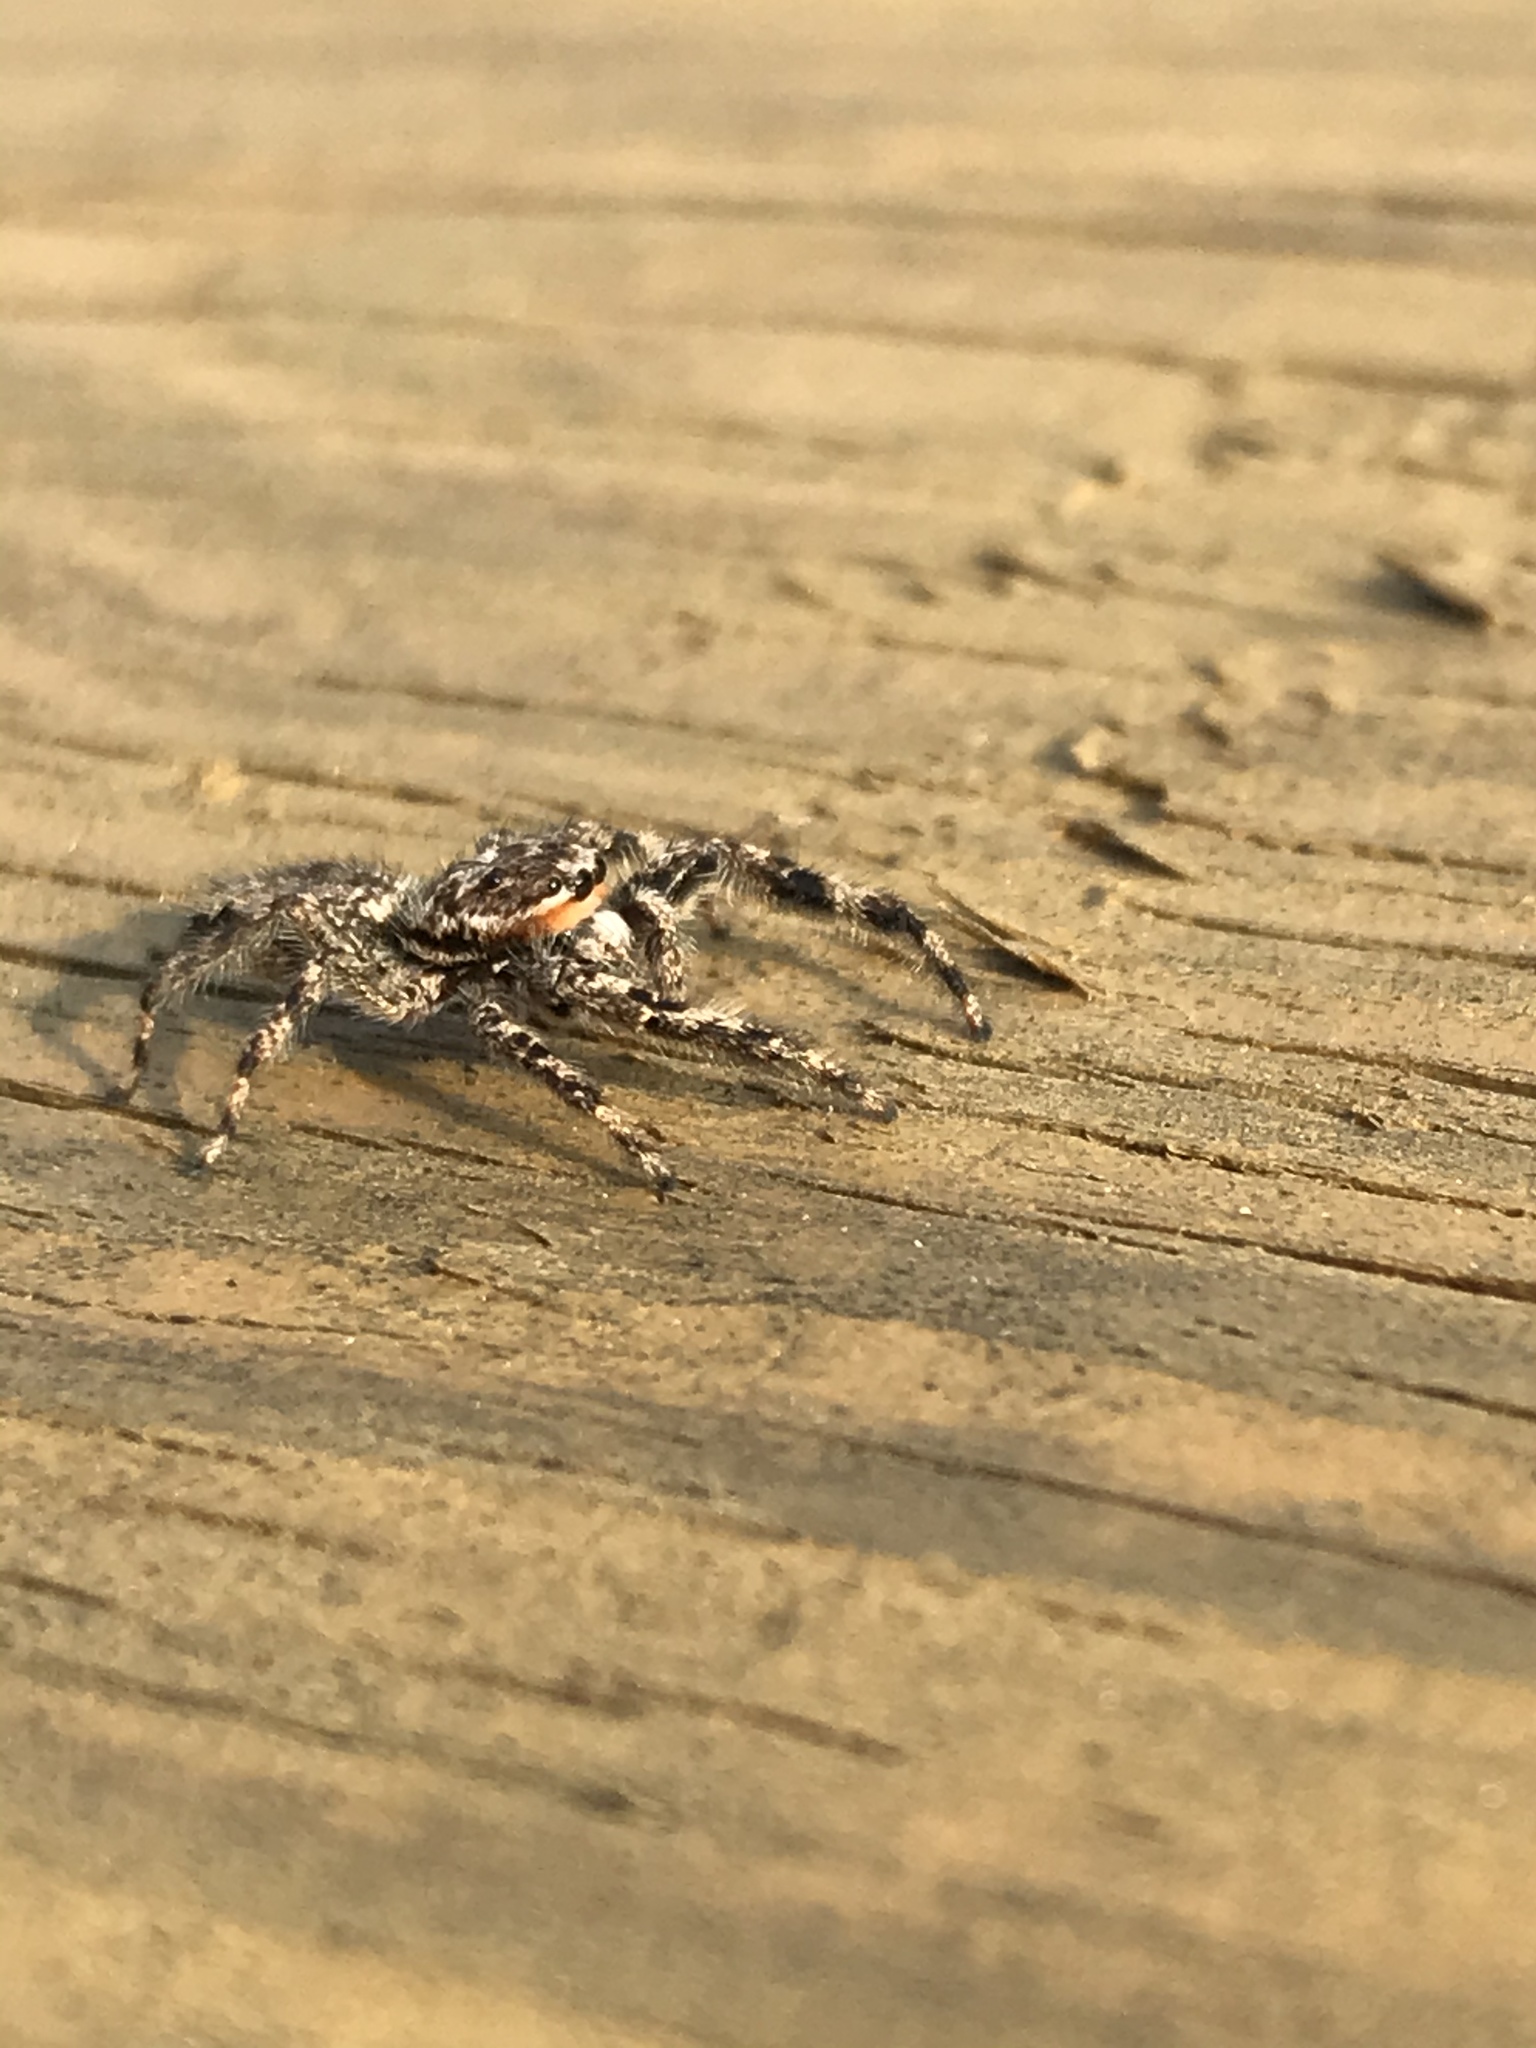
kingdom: Animalia
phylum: Arthropoda
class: Arachnida
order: Araneae
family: Salticidae
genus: Platycryptus
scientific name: Platycryptus undatus
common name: Tan jumping spider
